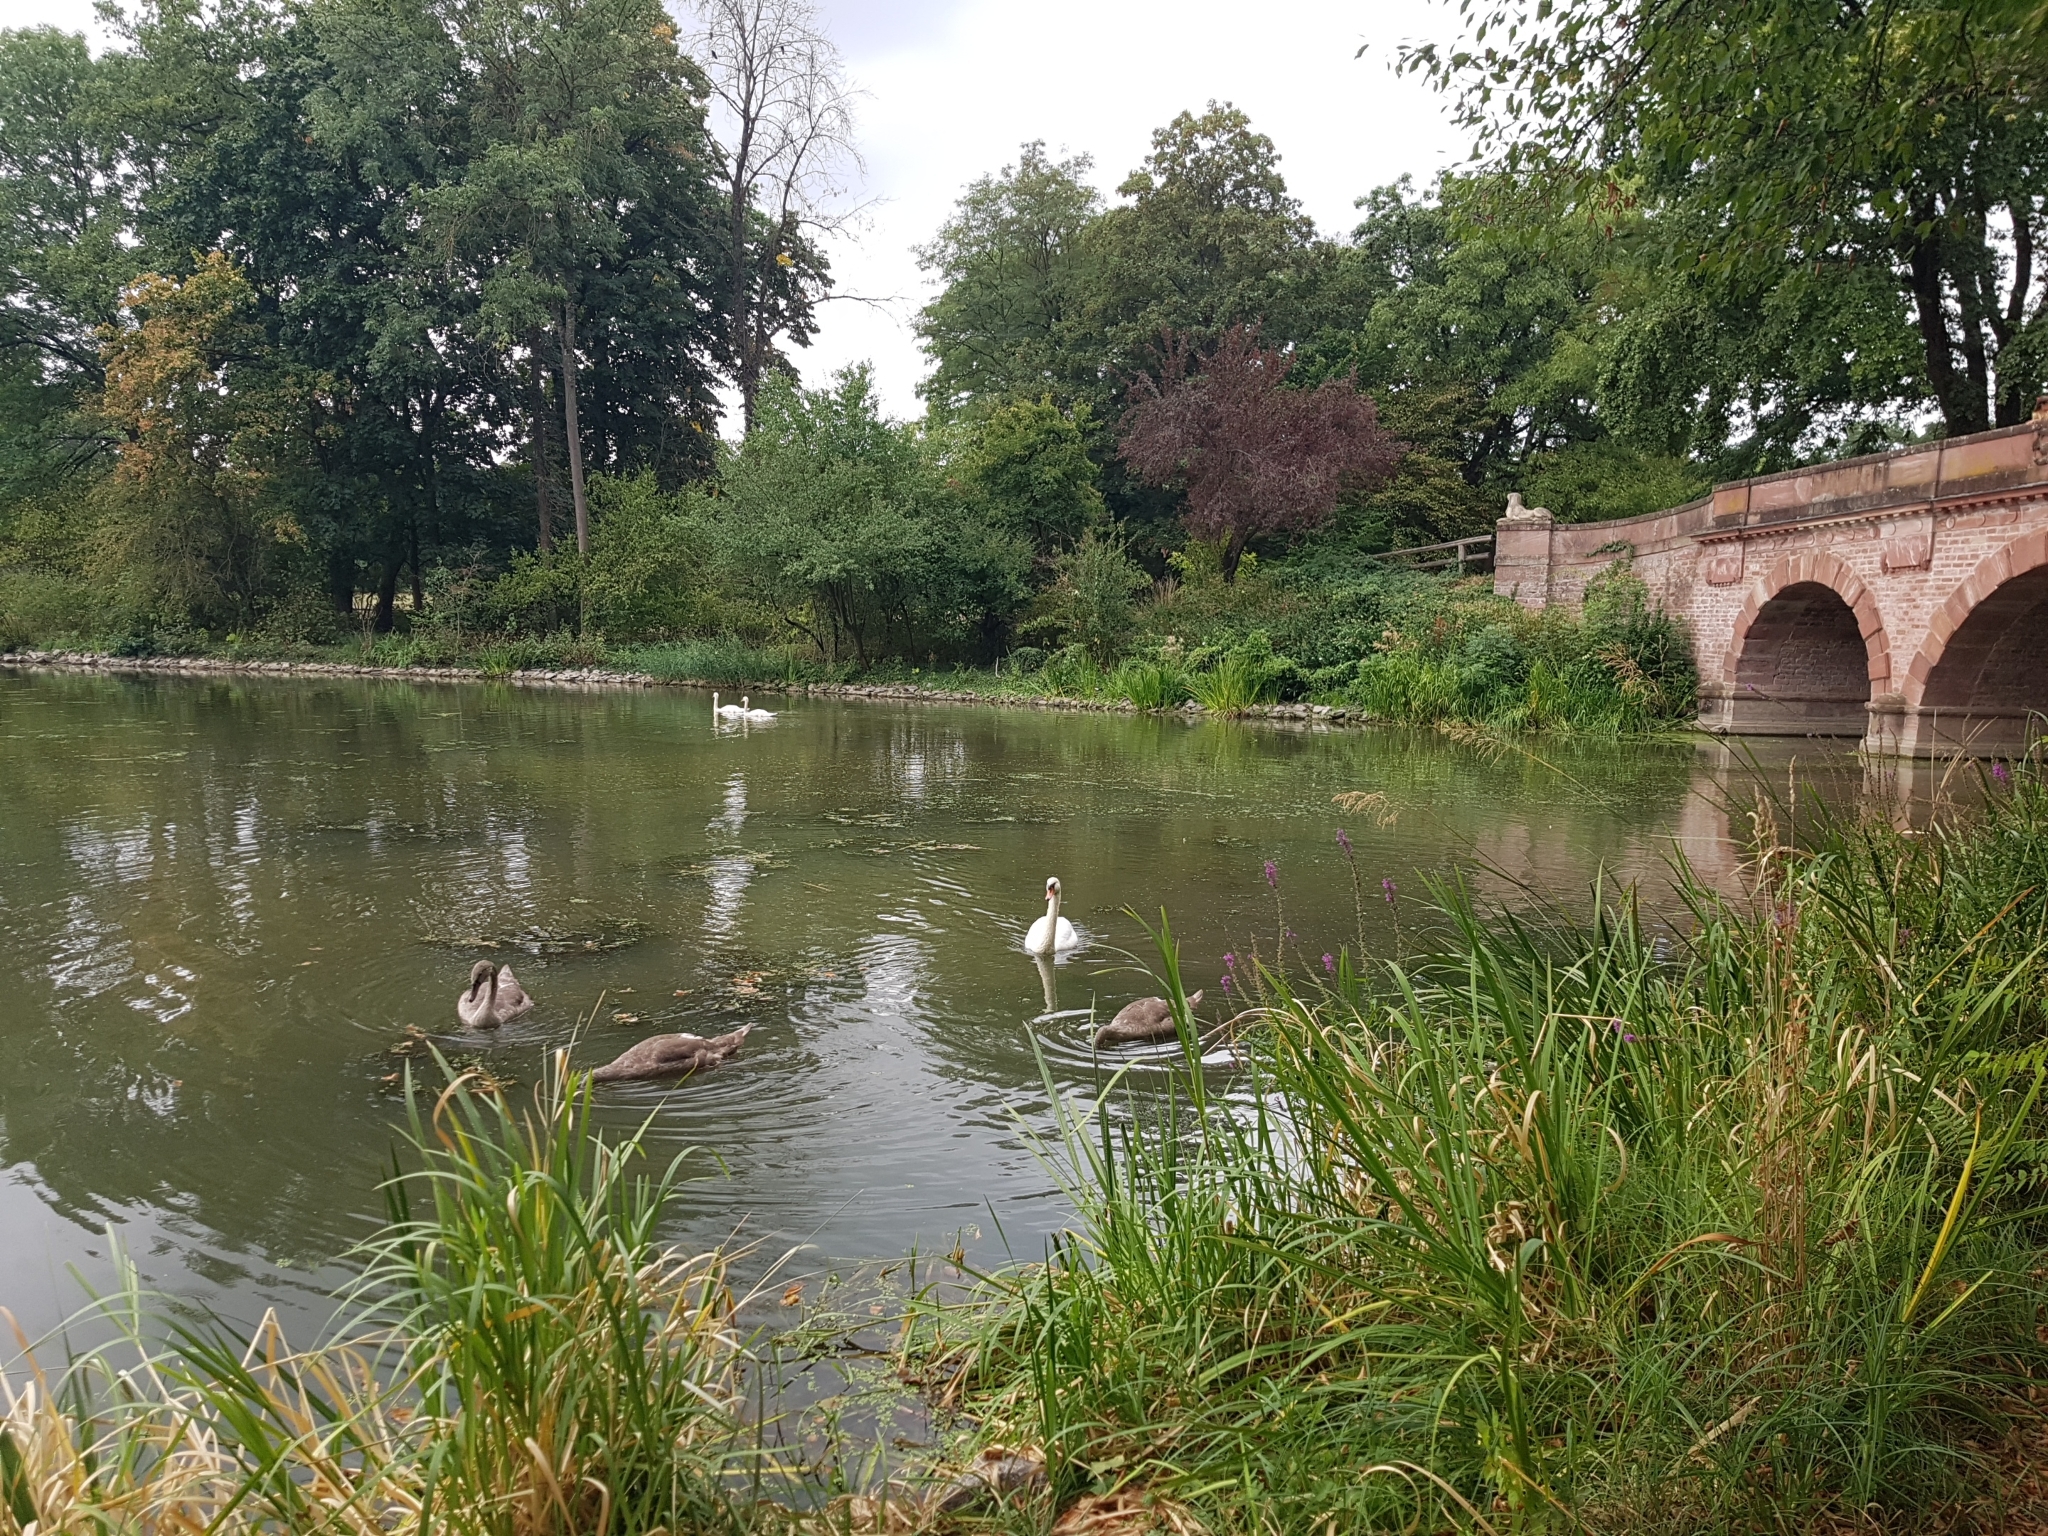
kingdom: Animalia
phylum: Chordata
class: Aves
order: Anseriformes
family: Anatidae
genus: Cygnus
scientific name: Cygnus olor
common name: Mute swan
